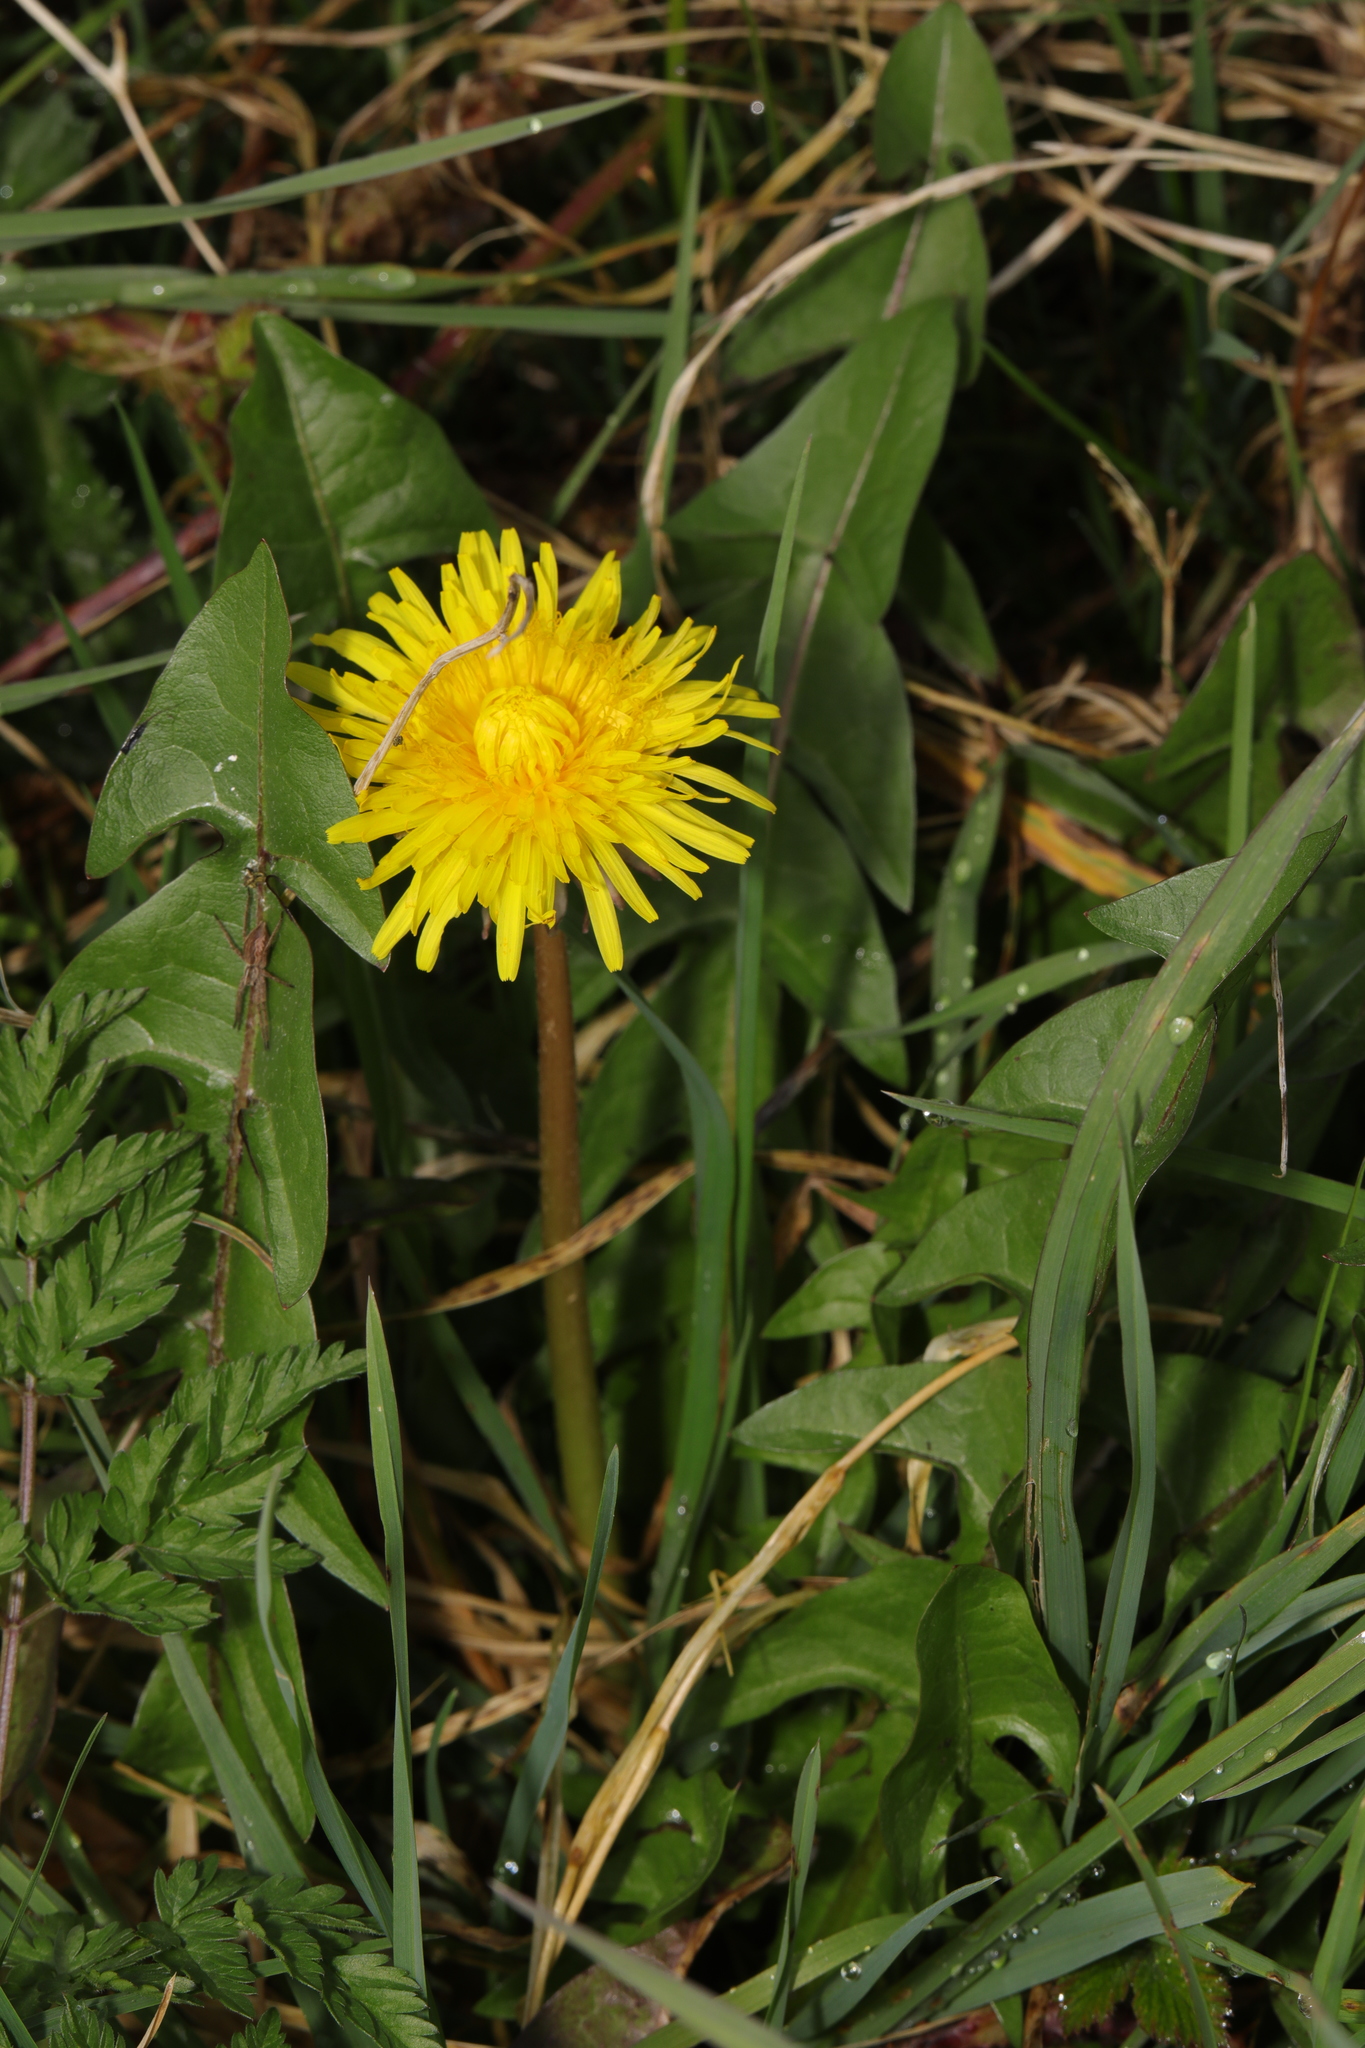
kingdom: Plantae
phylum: Tracheophyta
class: Magnoliopsida
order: Asterales
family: Asteraceae
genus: Taraxacum
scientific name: Taraxacum officinale
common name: Common dandelion
